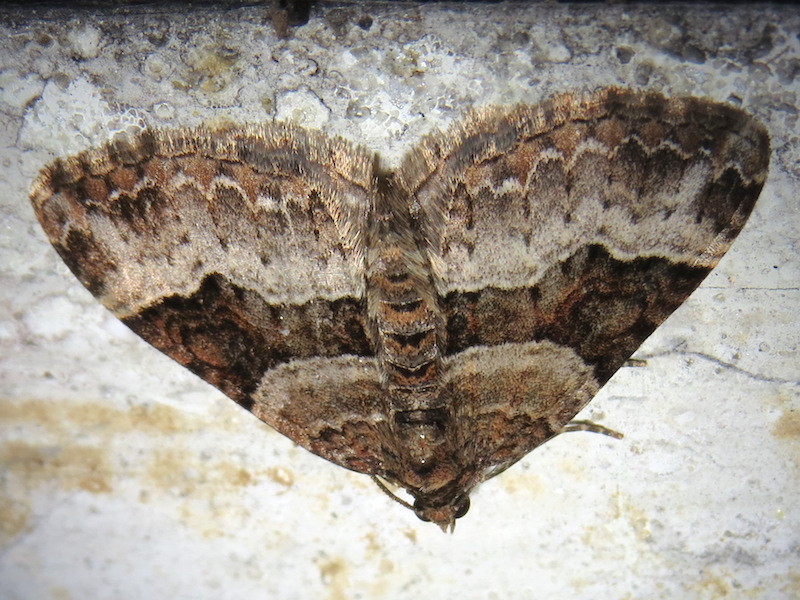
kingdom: Animalia
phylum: Arthropoda
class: Insecta
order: Lepidoptera
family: Geometridae
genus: Xanthorhoe
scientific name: Xanthorhoe lacustrata
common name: Toothed brown carpet
